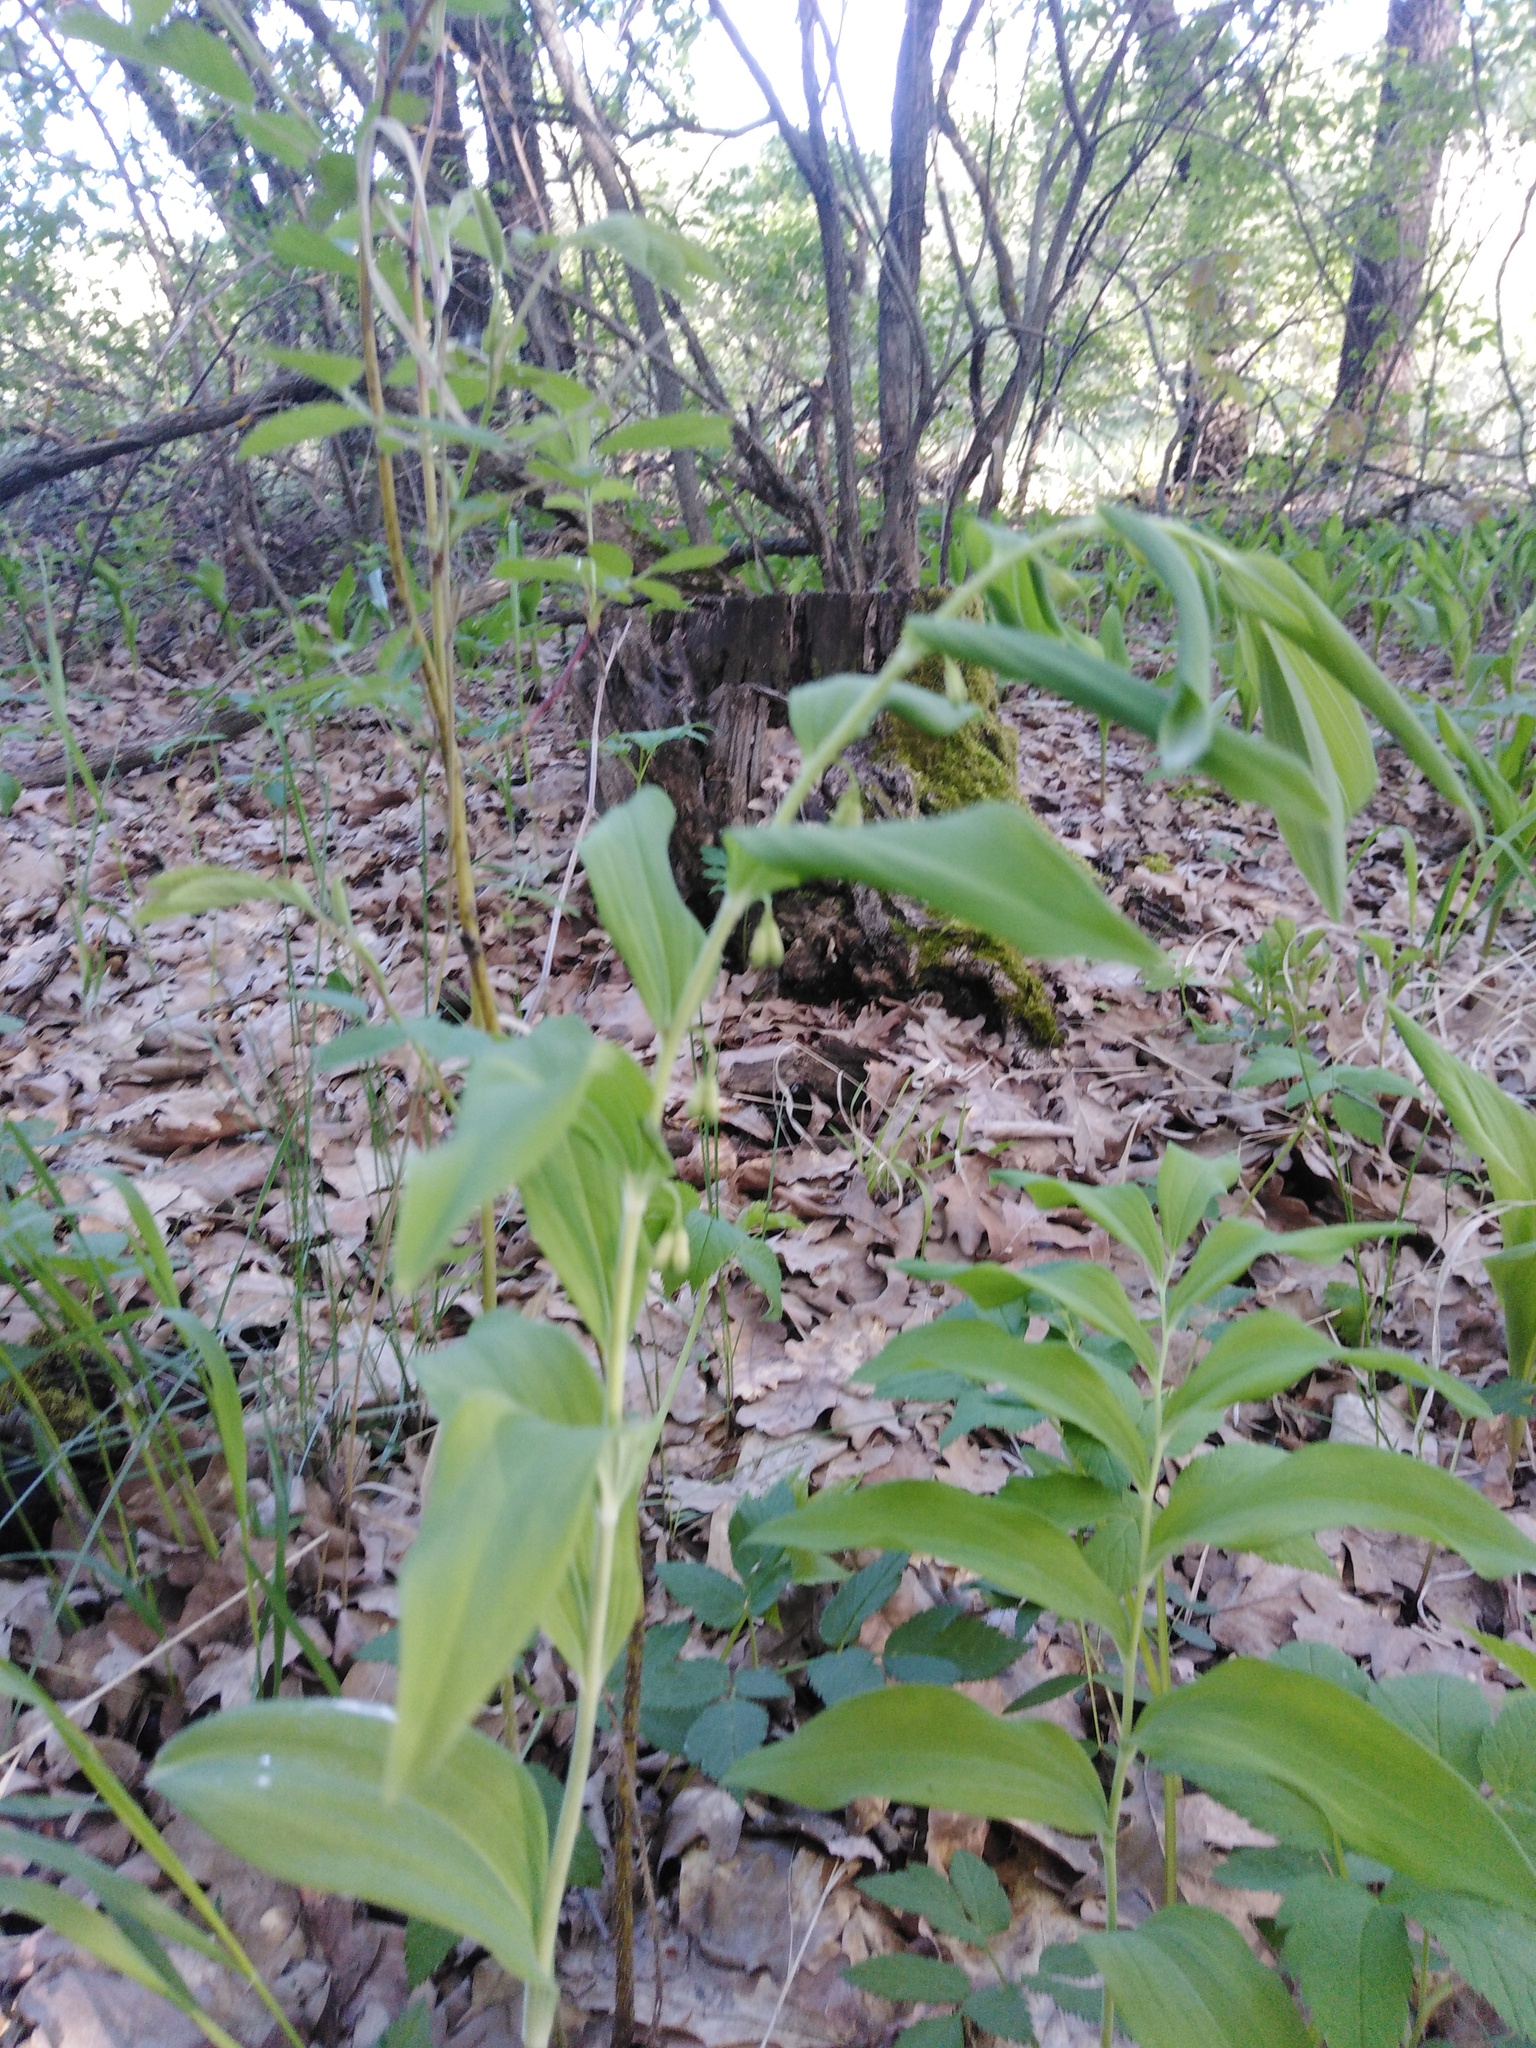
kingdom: Plantae
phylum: Tracheophyta
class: Liliopsida
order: Asparagales
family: Asparagaceae
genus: Polygonatum
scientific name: Polygonatum multiflorum
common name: Solomon's-seal
